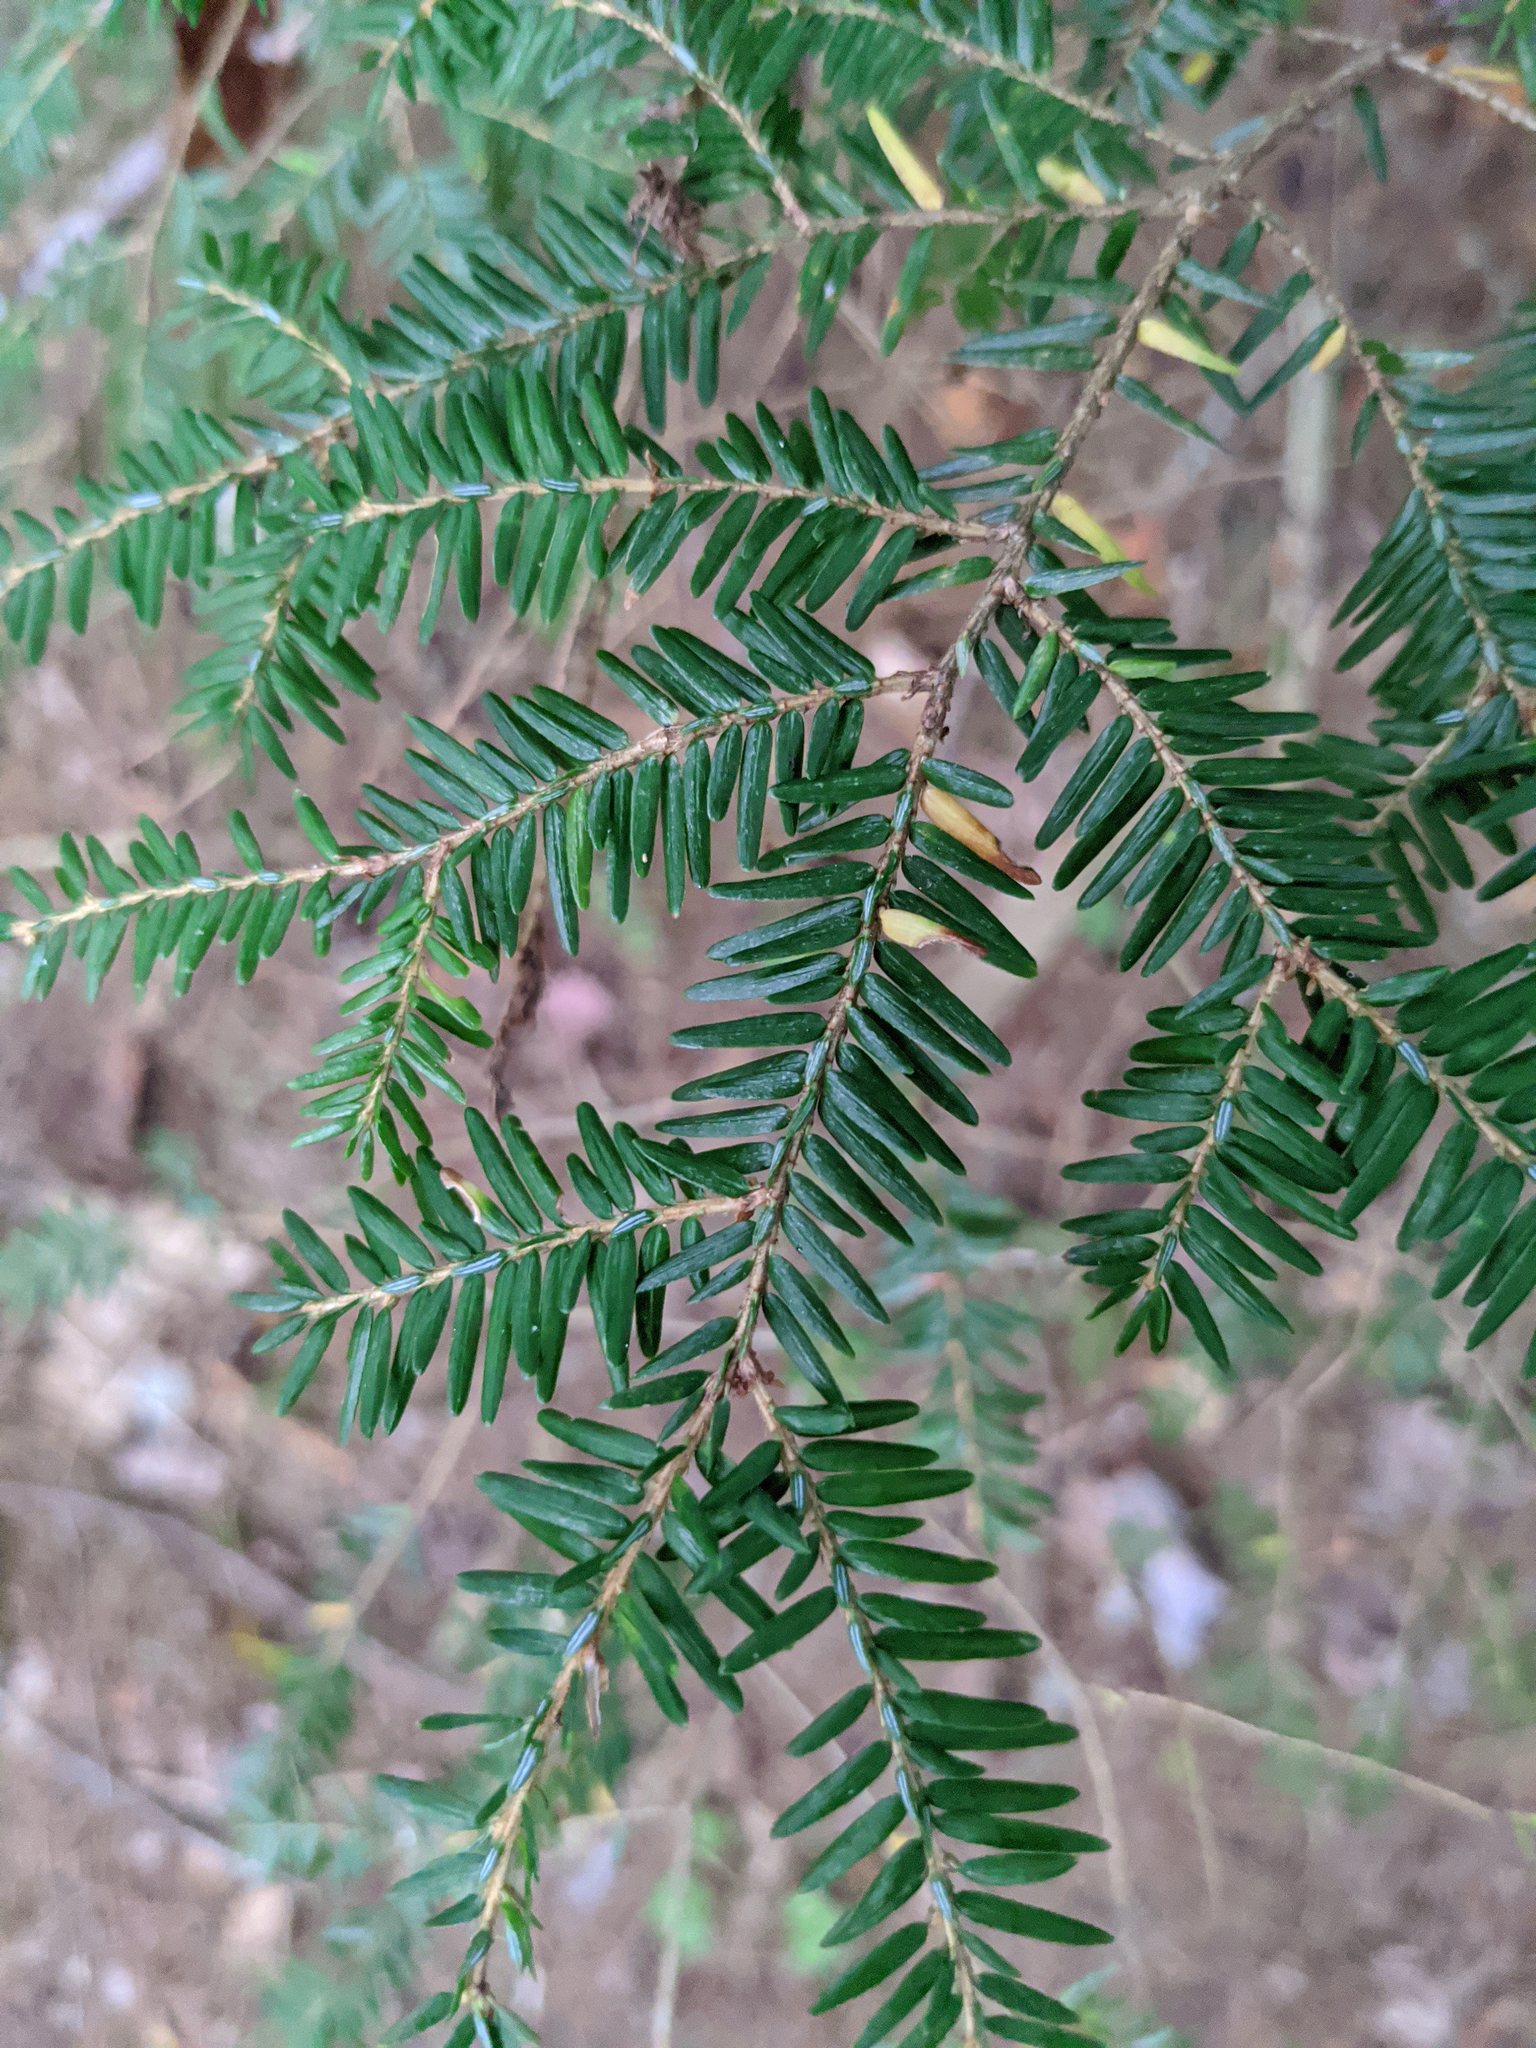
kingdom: Plantae
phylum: Tracheophyta
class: Pinopsida
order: Pinales
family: Pinaceae
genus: Tsuga
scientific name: Tsuga canadensis
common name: Eastern hemlock
